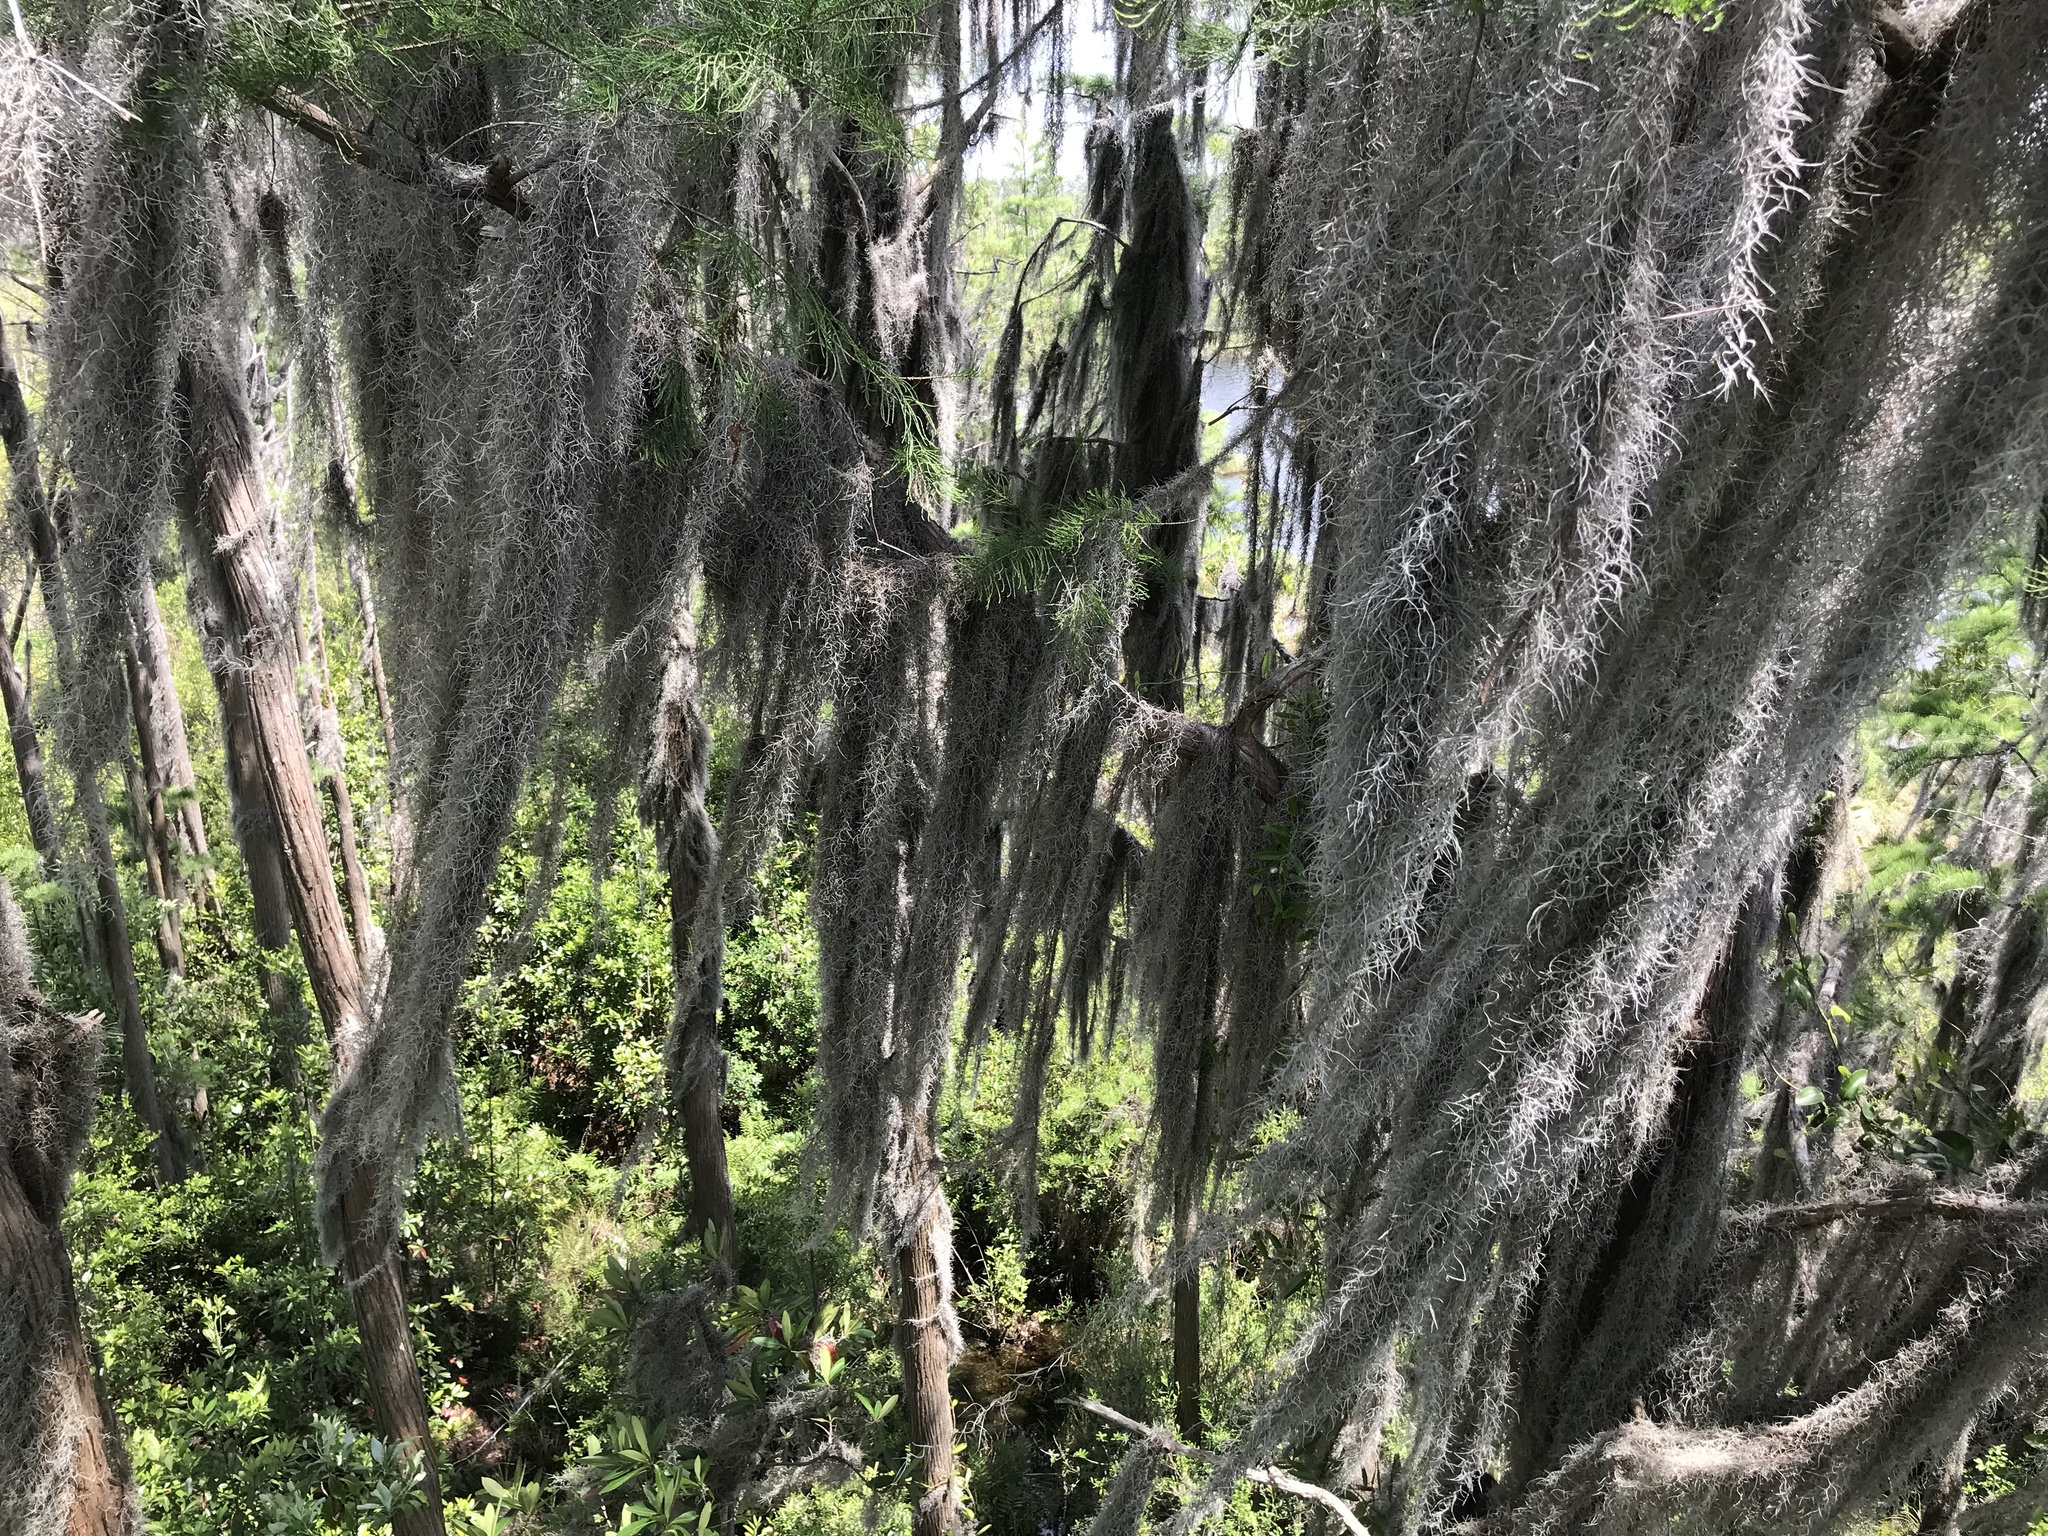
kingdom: Plantae
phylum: Tracheophyta
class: Liliopsida
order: Poales
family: Bromeliaceae
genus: Tillandsia
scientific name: Tillandsia usneoides
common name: Spanish moss
